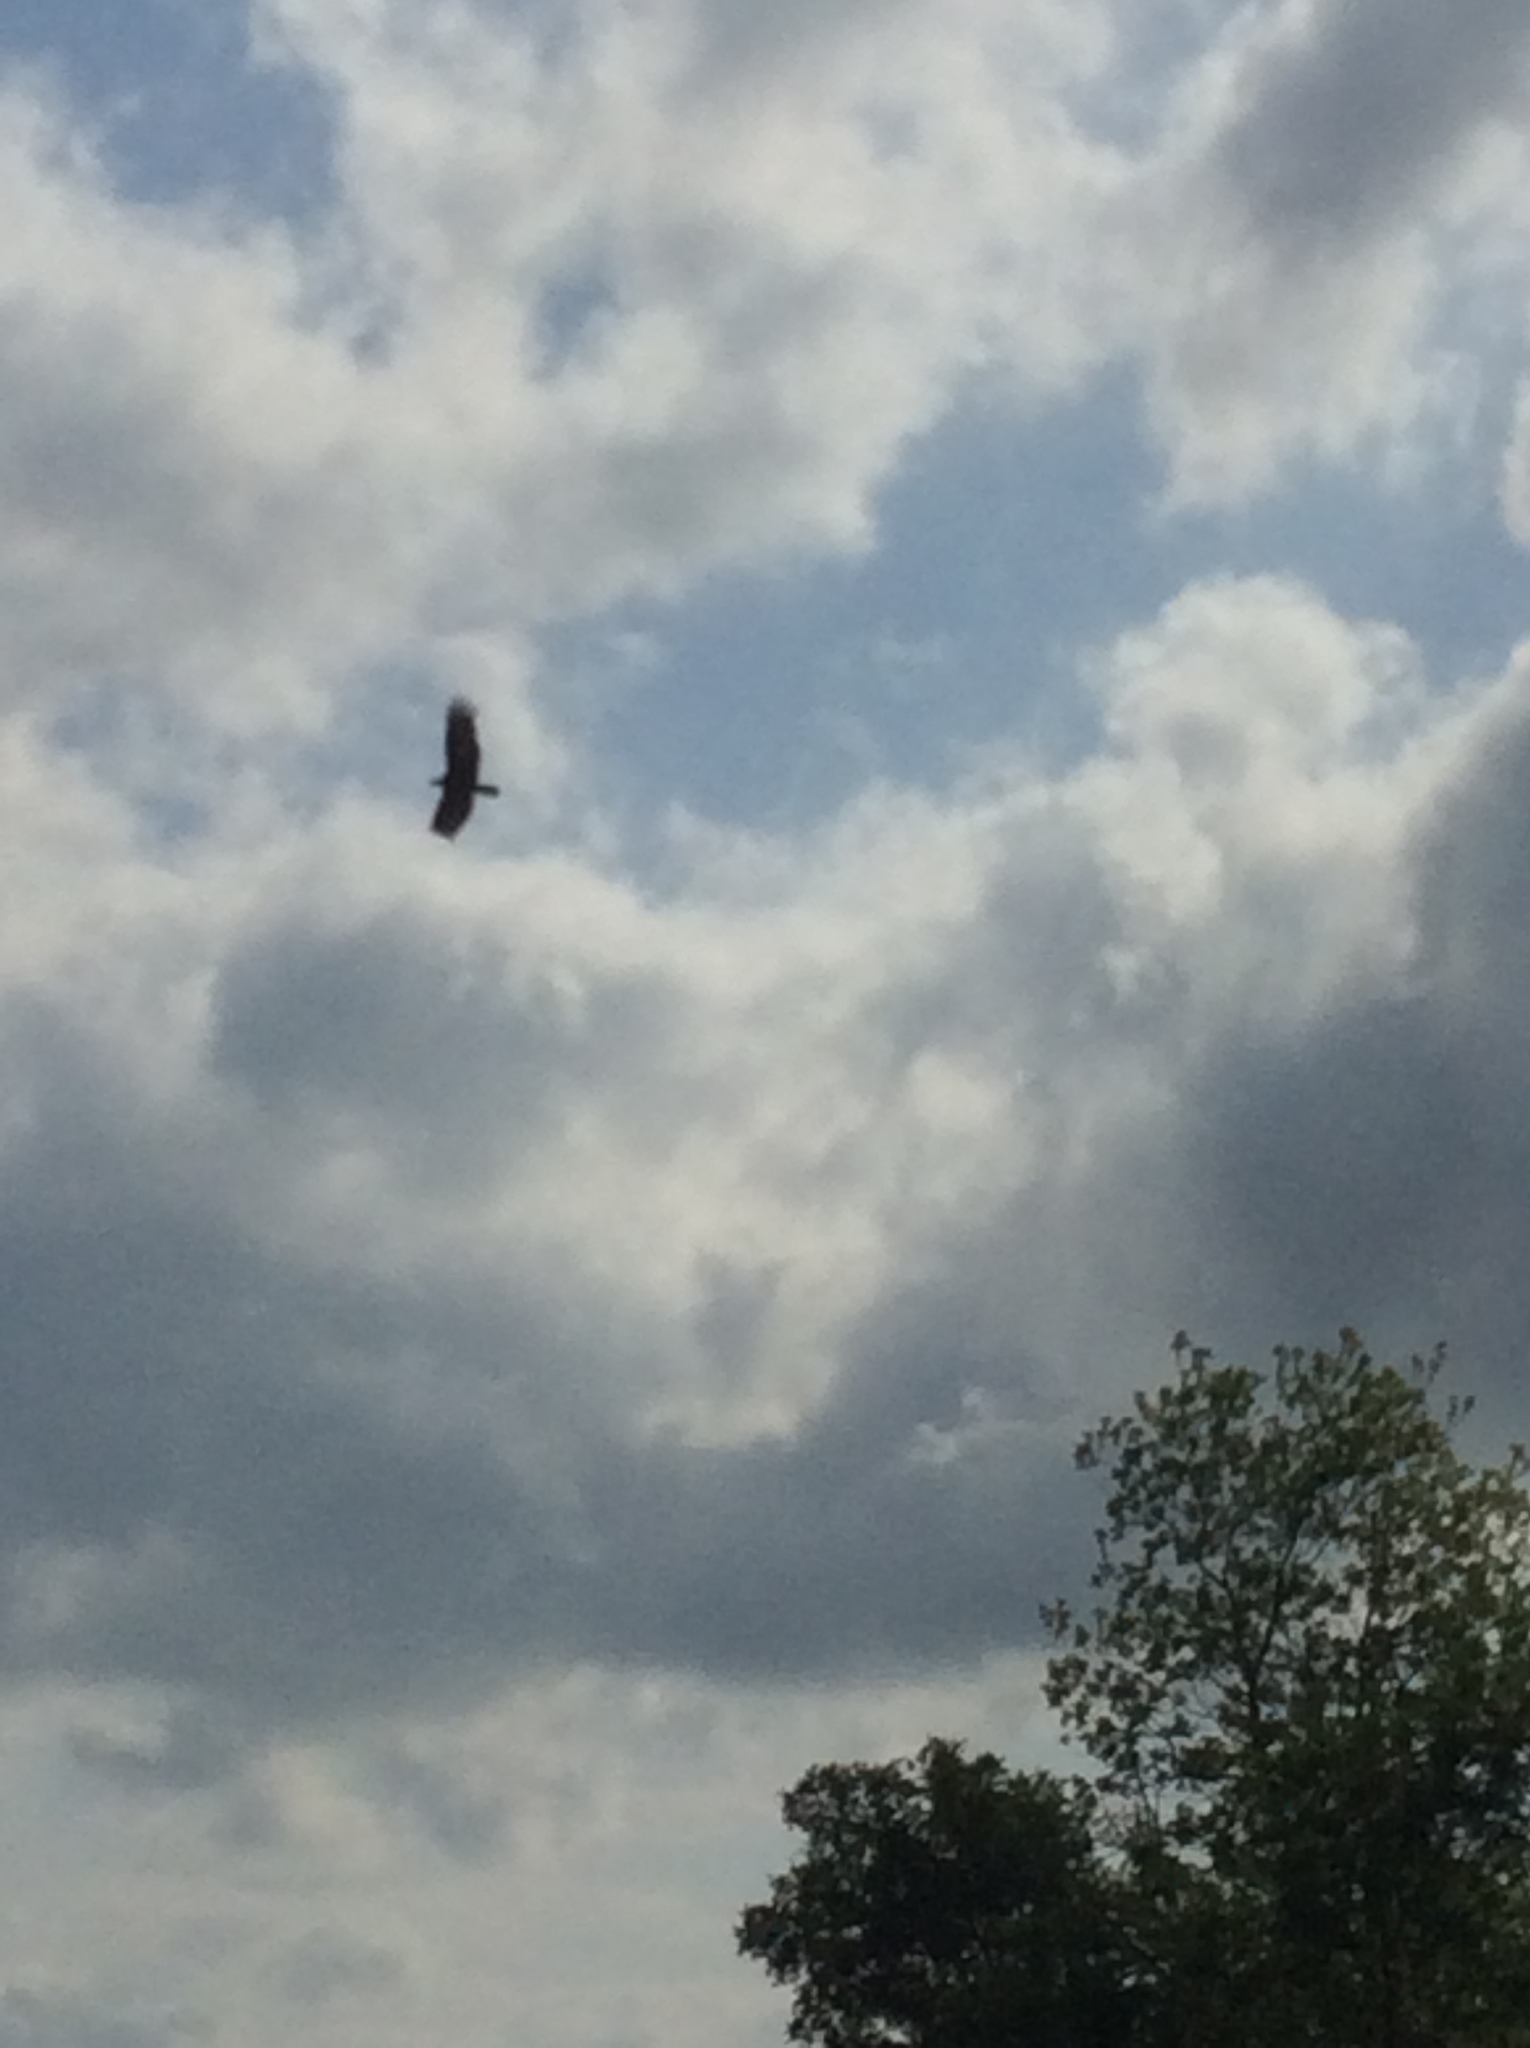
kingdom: Animalia
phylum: Chordata
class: Aves
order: Accipitriformes
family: Cathartidae
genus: Cathartes
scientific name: Cathartes aura
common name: Turkey vulture
